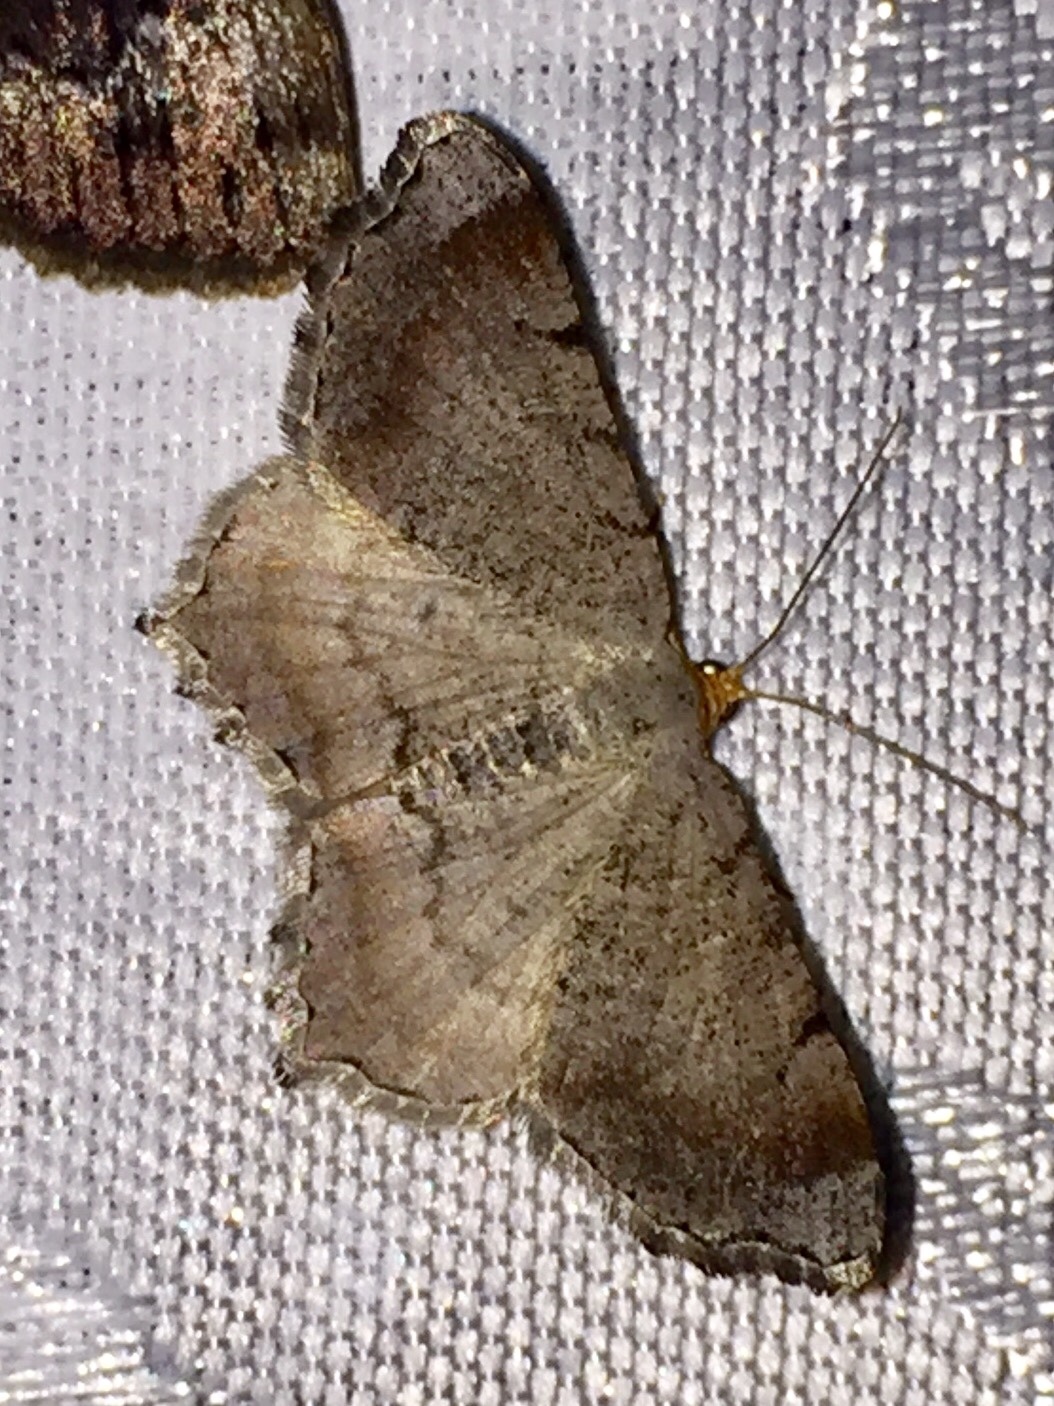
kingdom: Animalia
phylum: Arthropoda
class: Insecta
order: Lepidoptera
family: Geometridae
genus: Macaria
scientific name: Macaria transitaria
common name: Blurry chocolate angle
